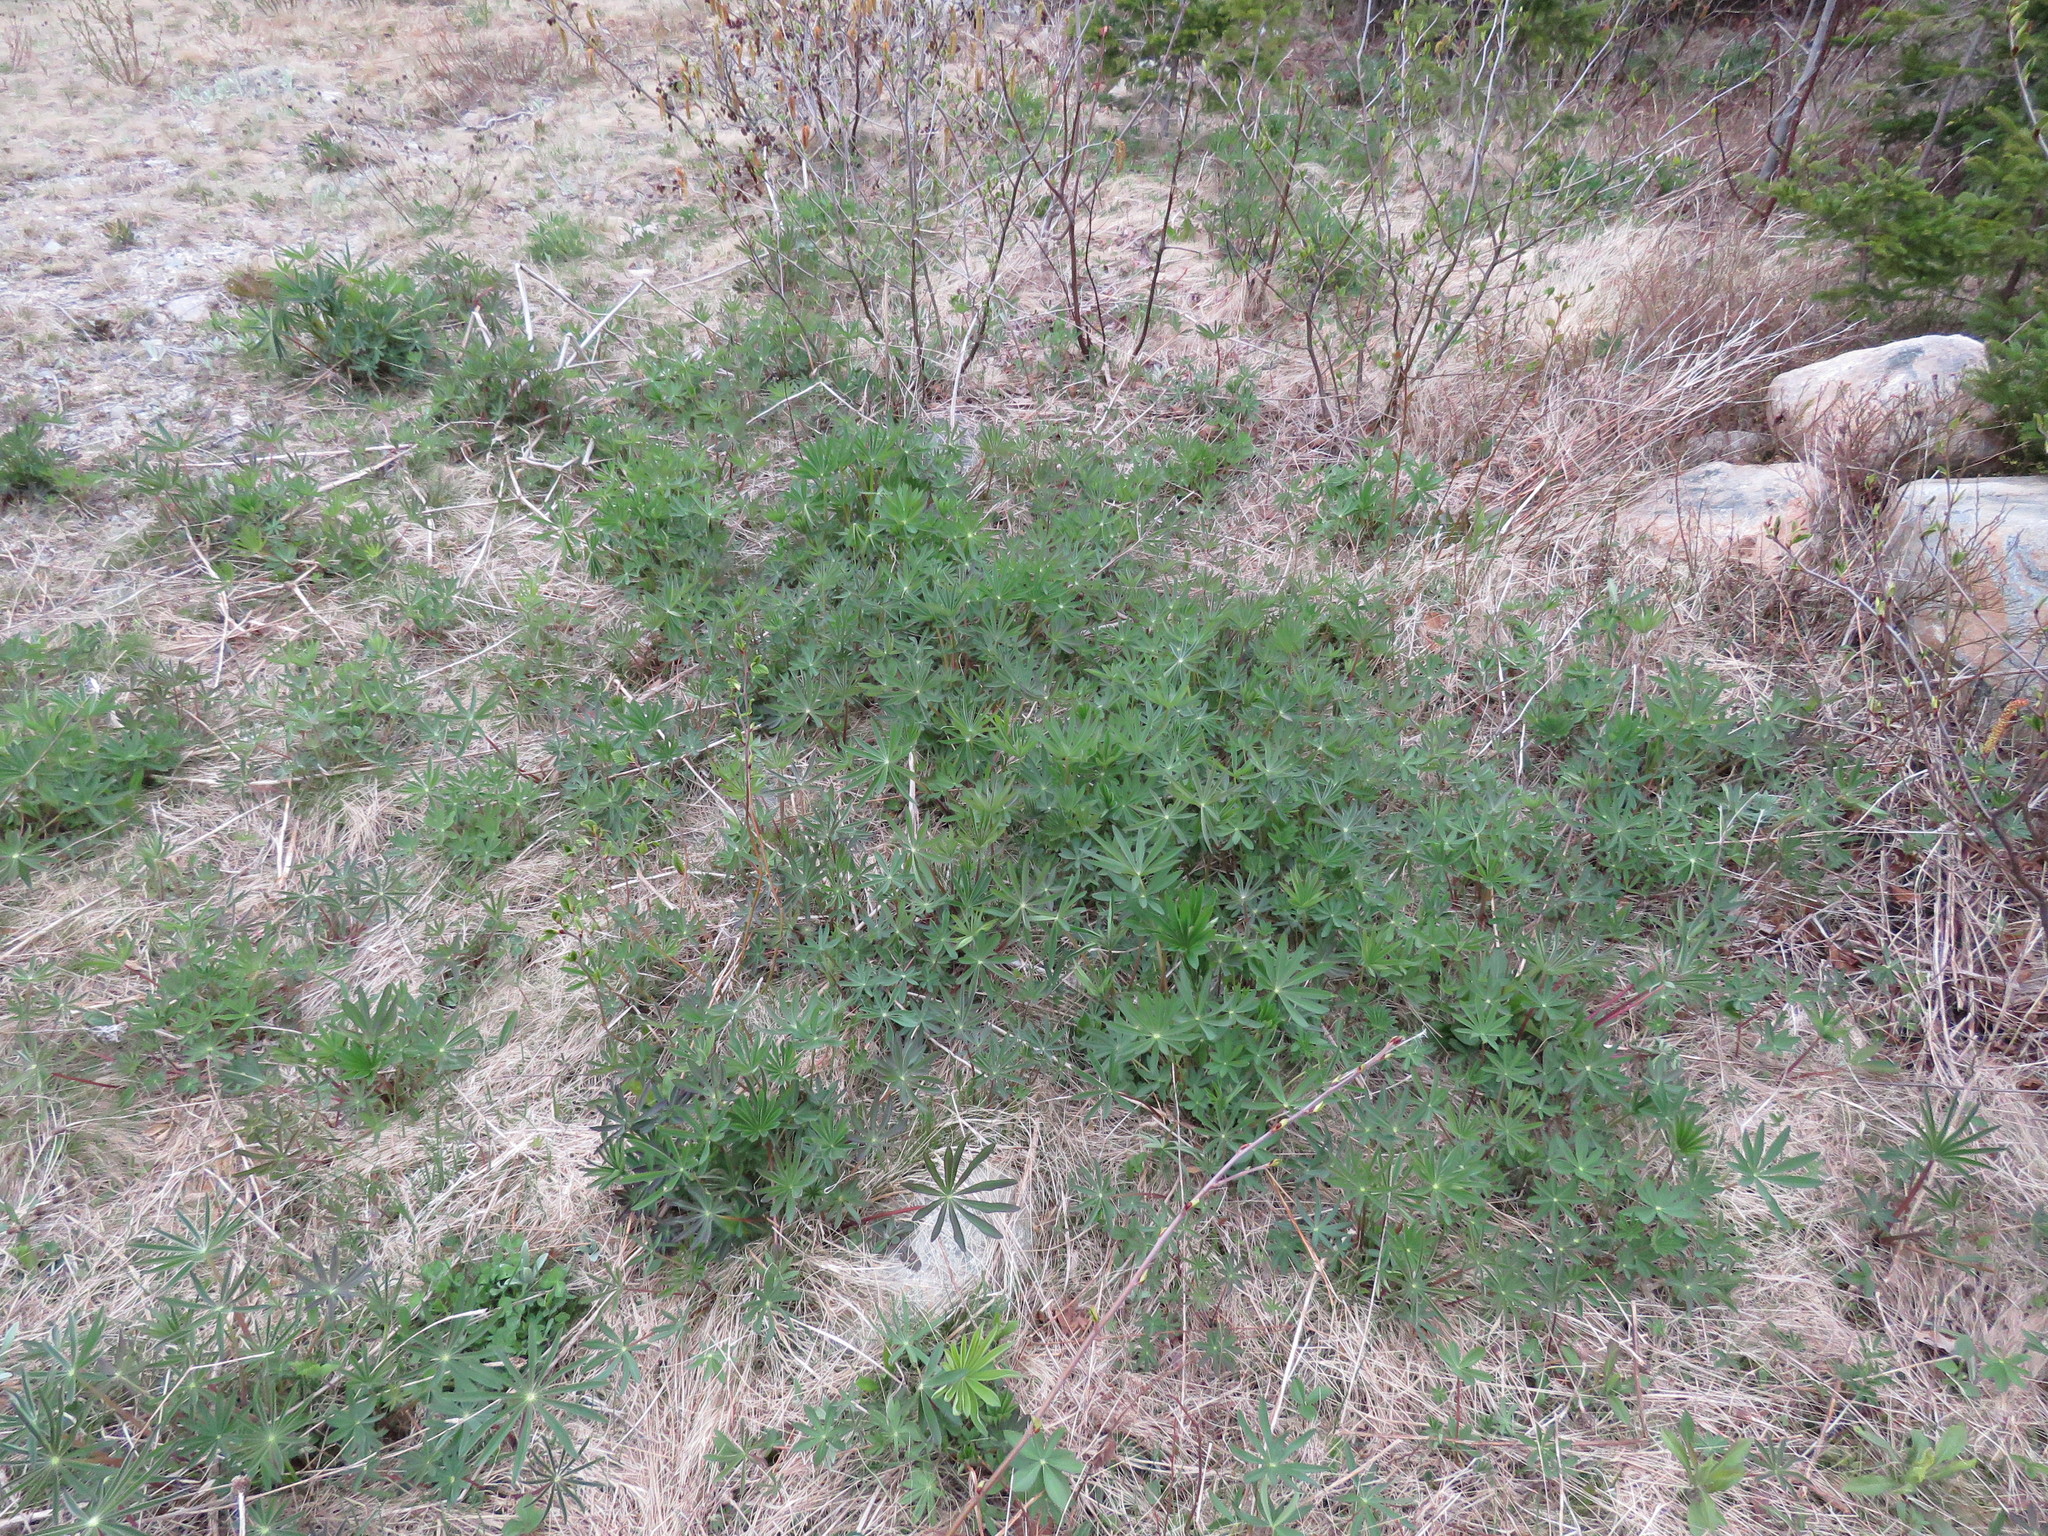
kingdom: Plantae
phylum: Tracheophyta
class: Magnoliopsida
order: Fabales
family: Fabaceae
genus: Lupinus
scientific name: Lupinus polyphyllus
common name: Garden lupin
